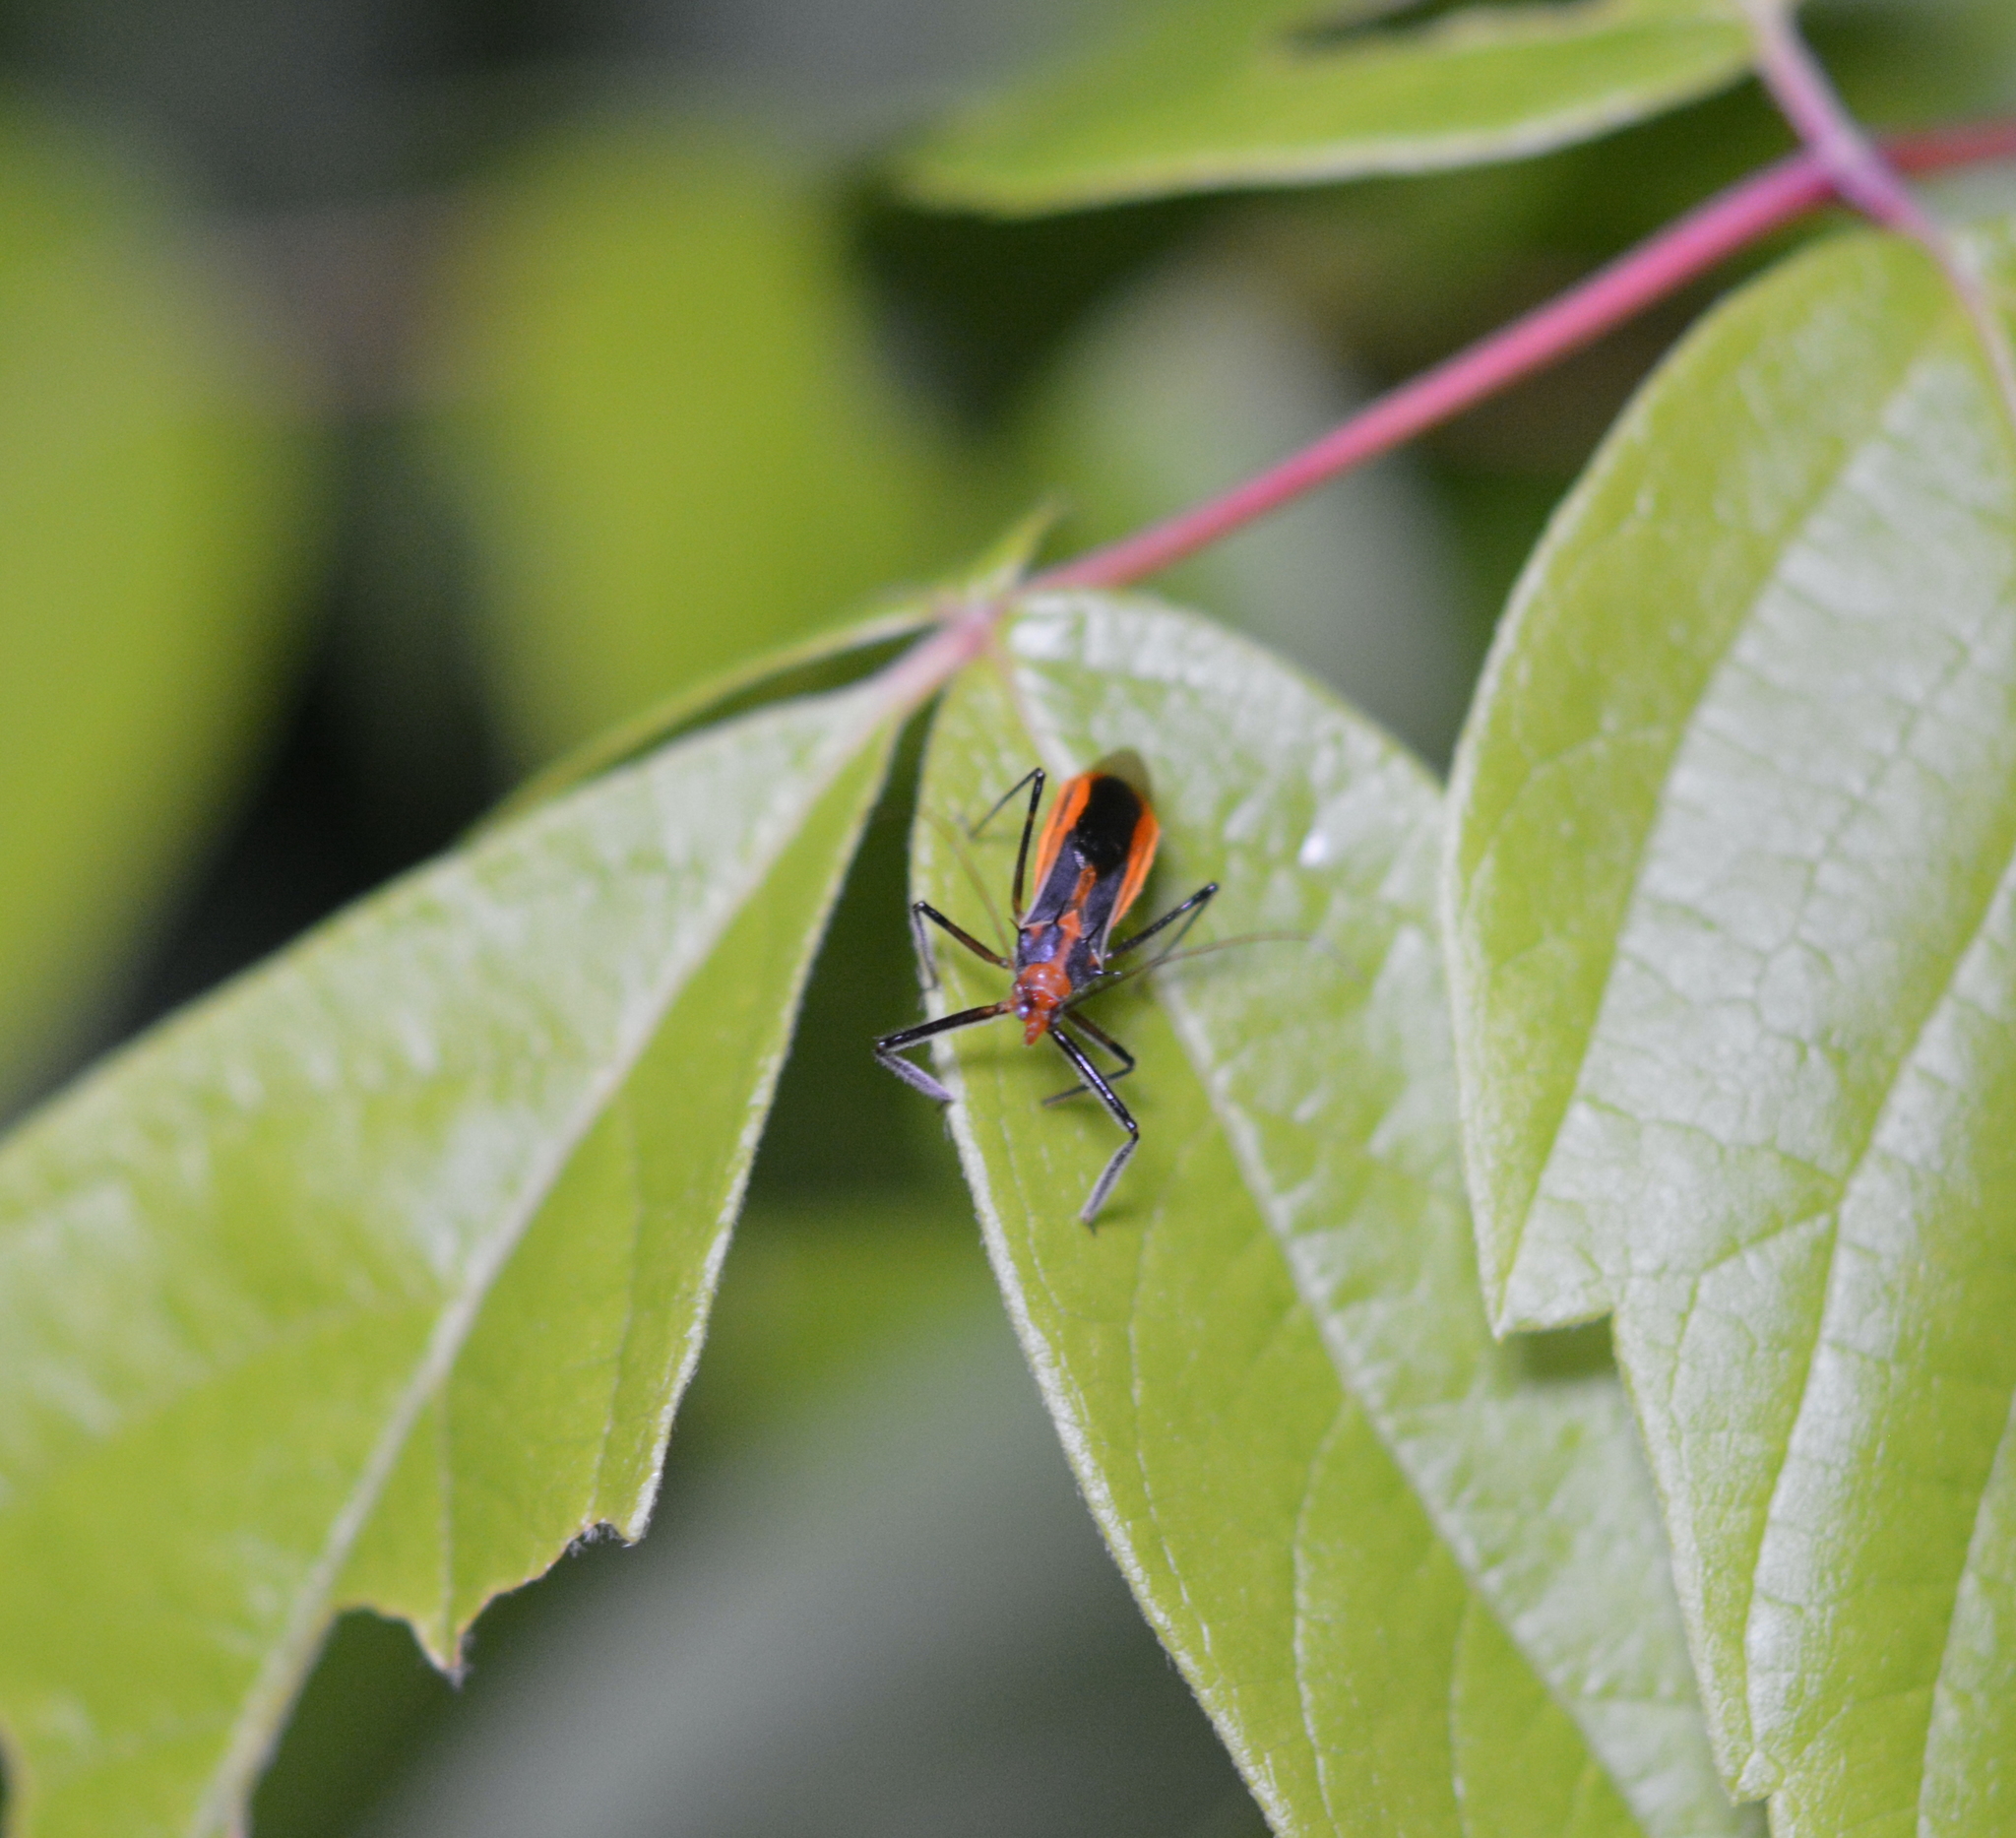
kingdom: Animalia
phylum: Arthropoda
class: Insecta
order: Hemiptera
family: Reduviidae
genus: Repipta
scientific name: Repipta taurus
